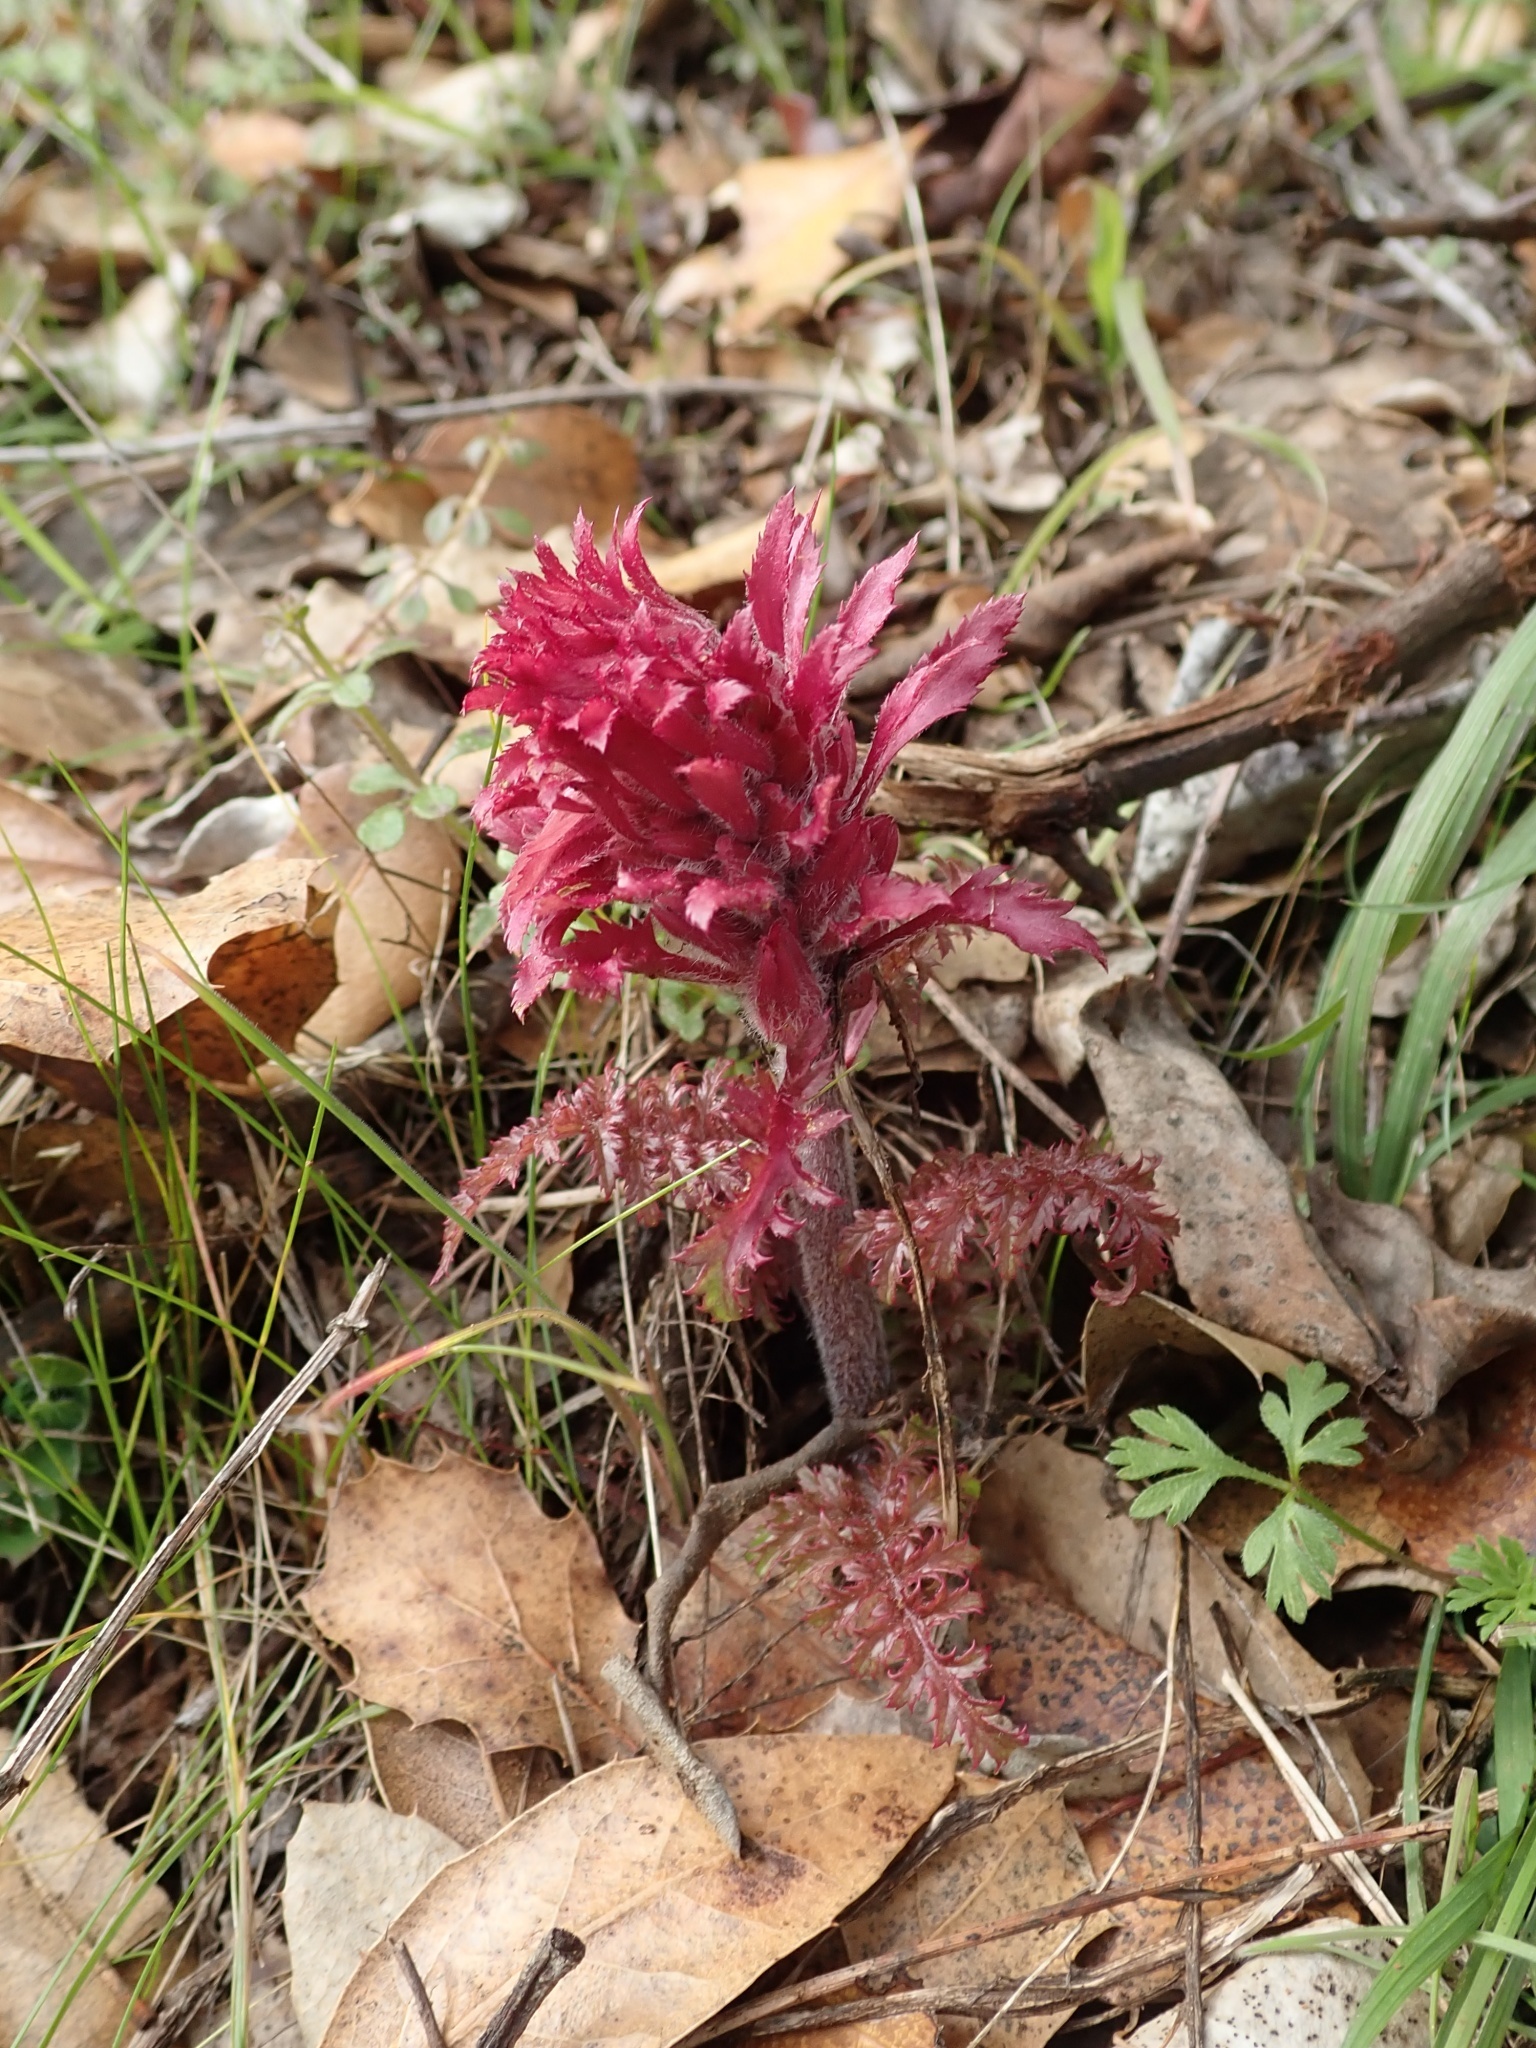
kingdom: Plantae
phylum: Tracheophyta
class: Magnoliopsida
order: Lamiales
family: Orobanchaceae
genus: Pedicularis
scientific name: Pedicularis densiflora
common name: Indian warrior
